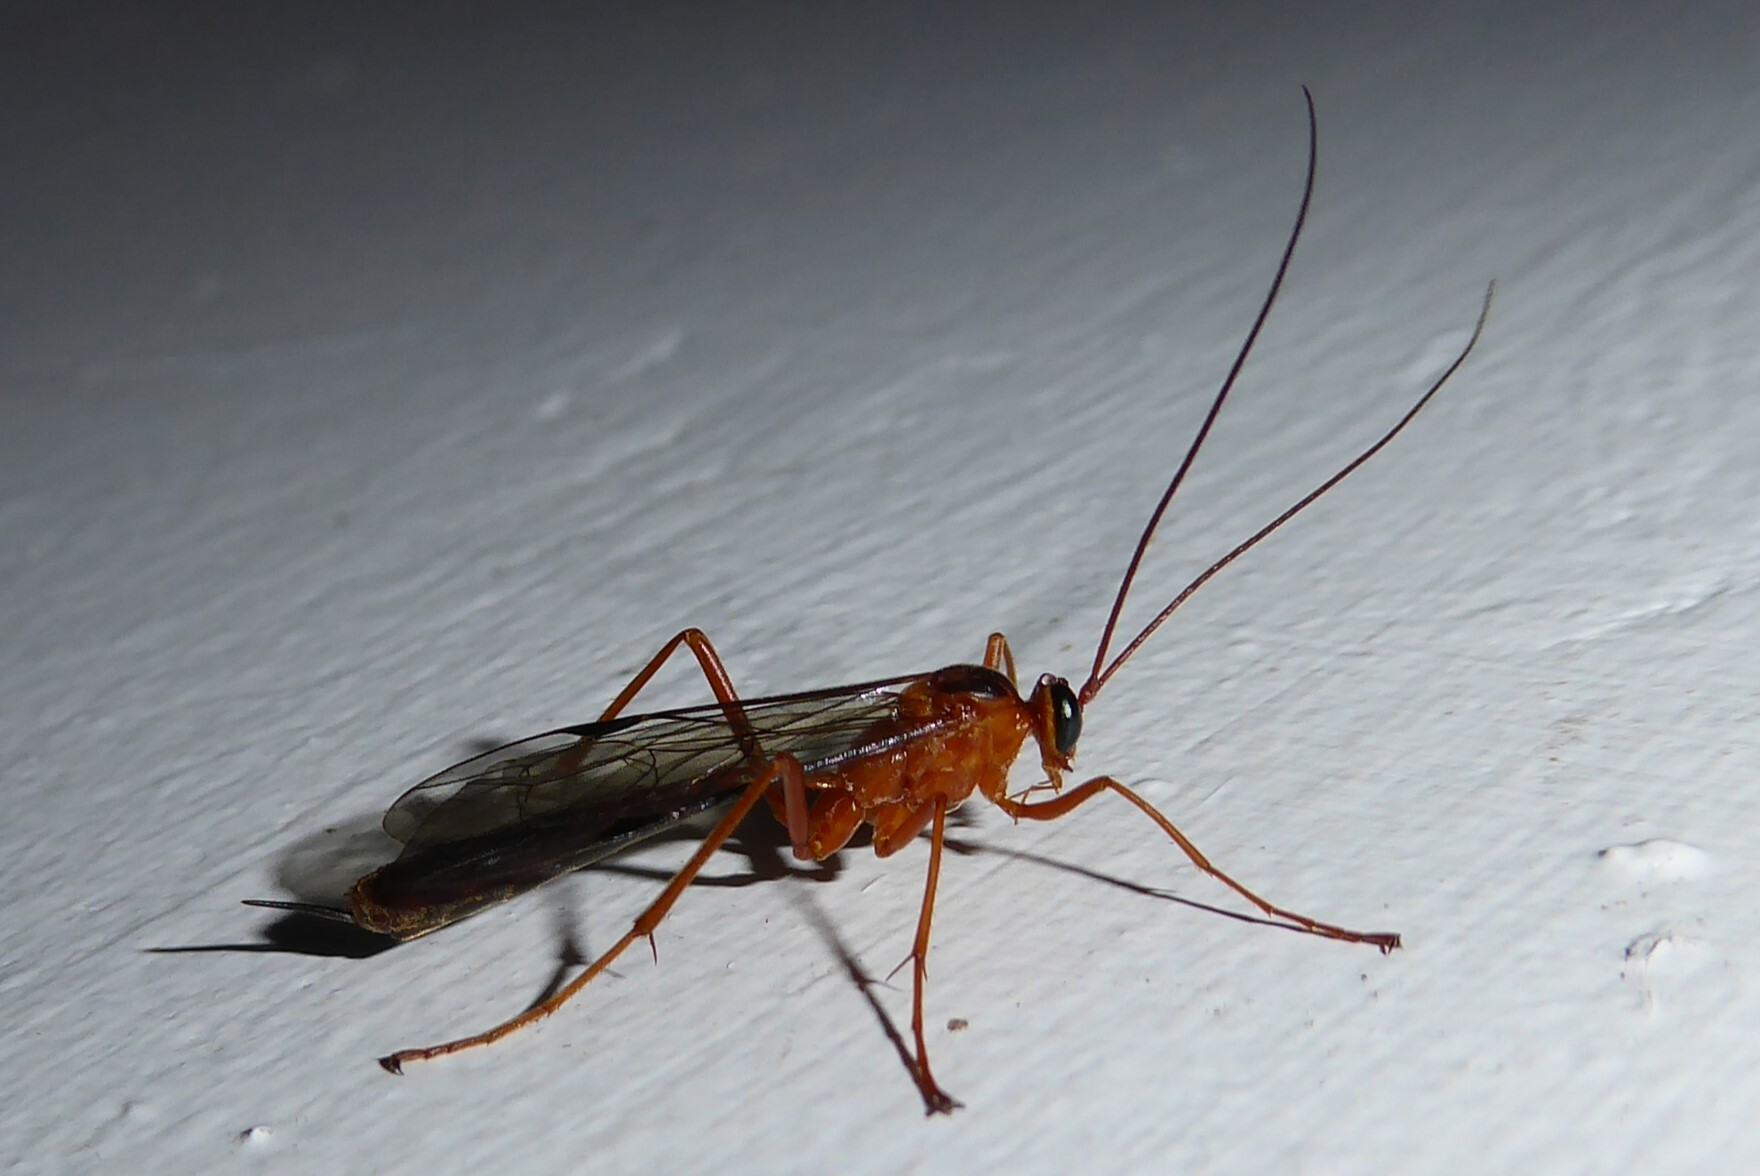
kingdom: Animalia
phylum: Arthropoda
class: Insecta
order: Hymenoptera
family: Ichneumonidae
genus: Netelia
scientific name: Netelia ephippiata
